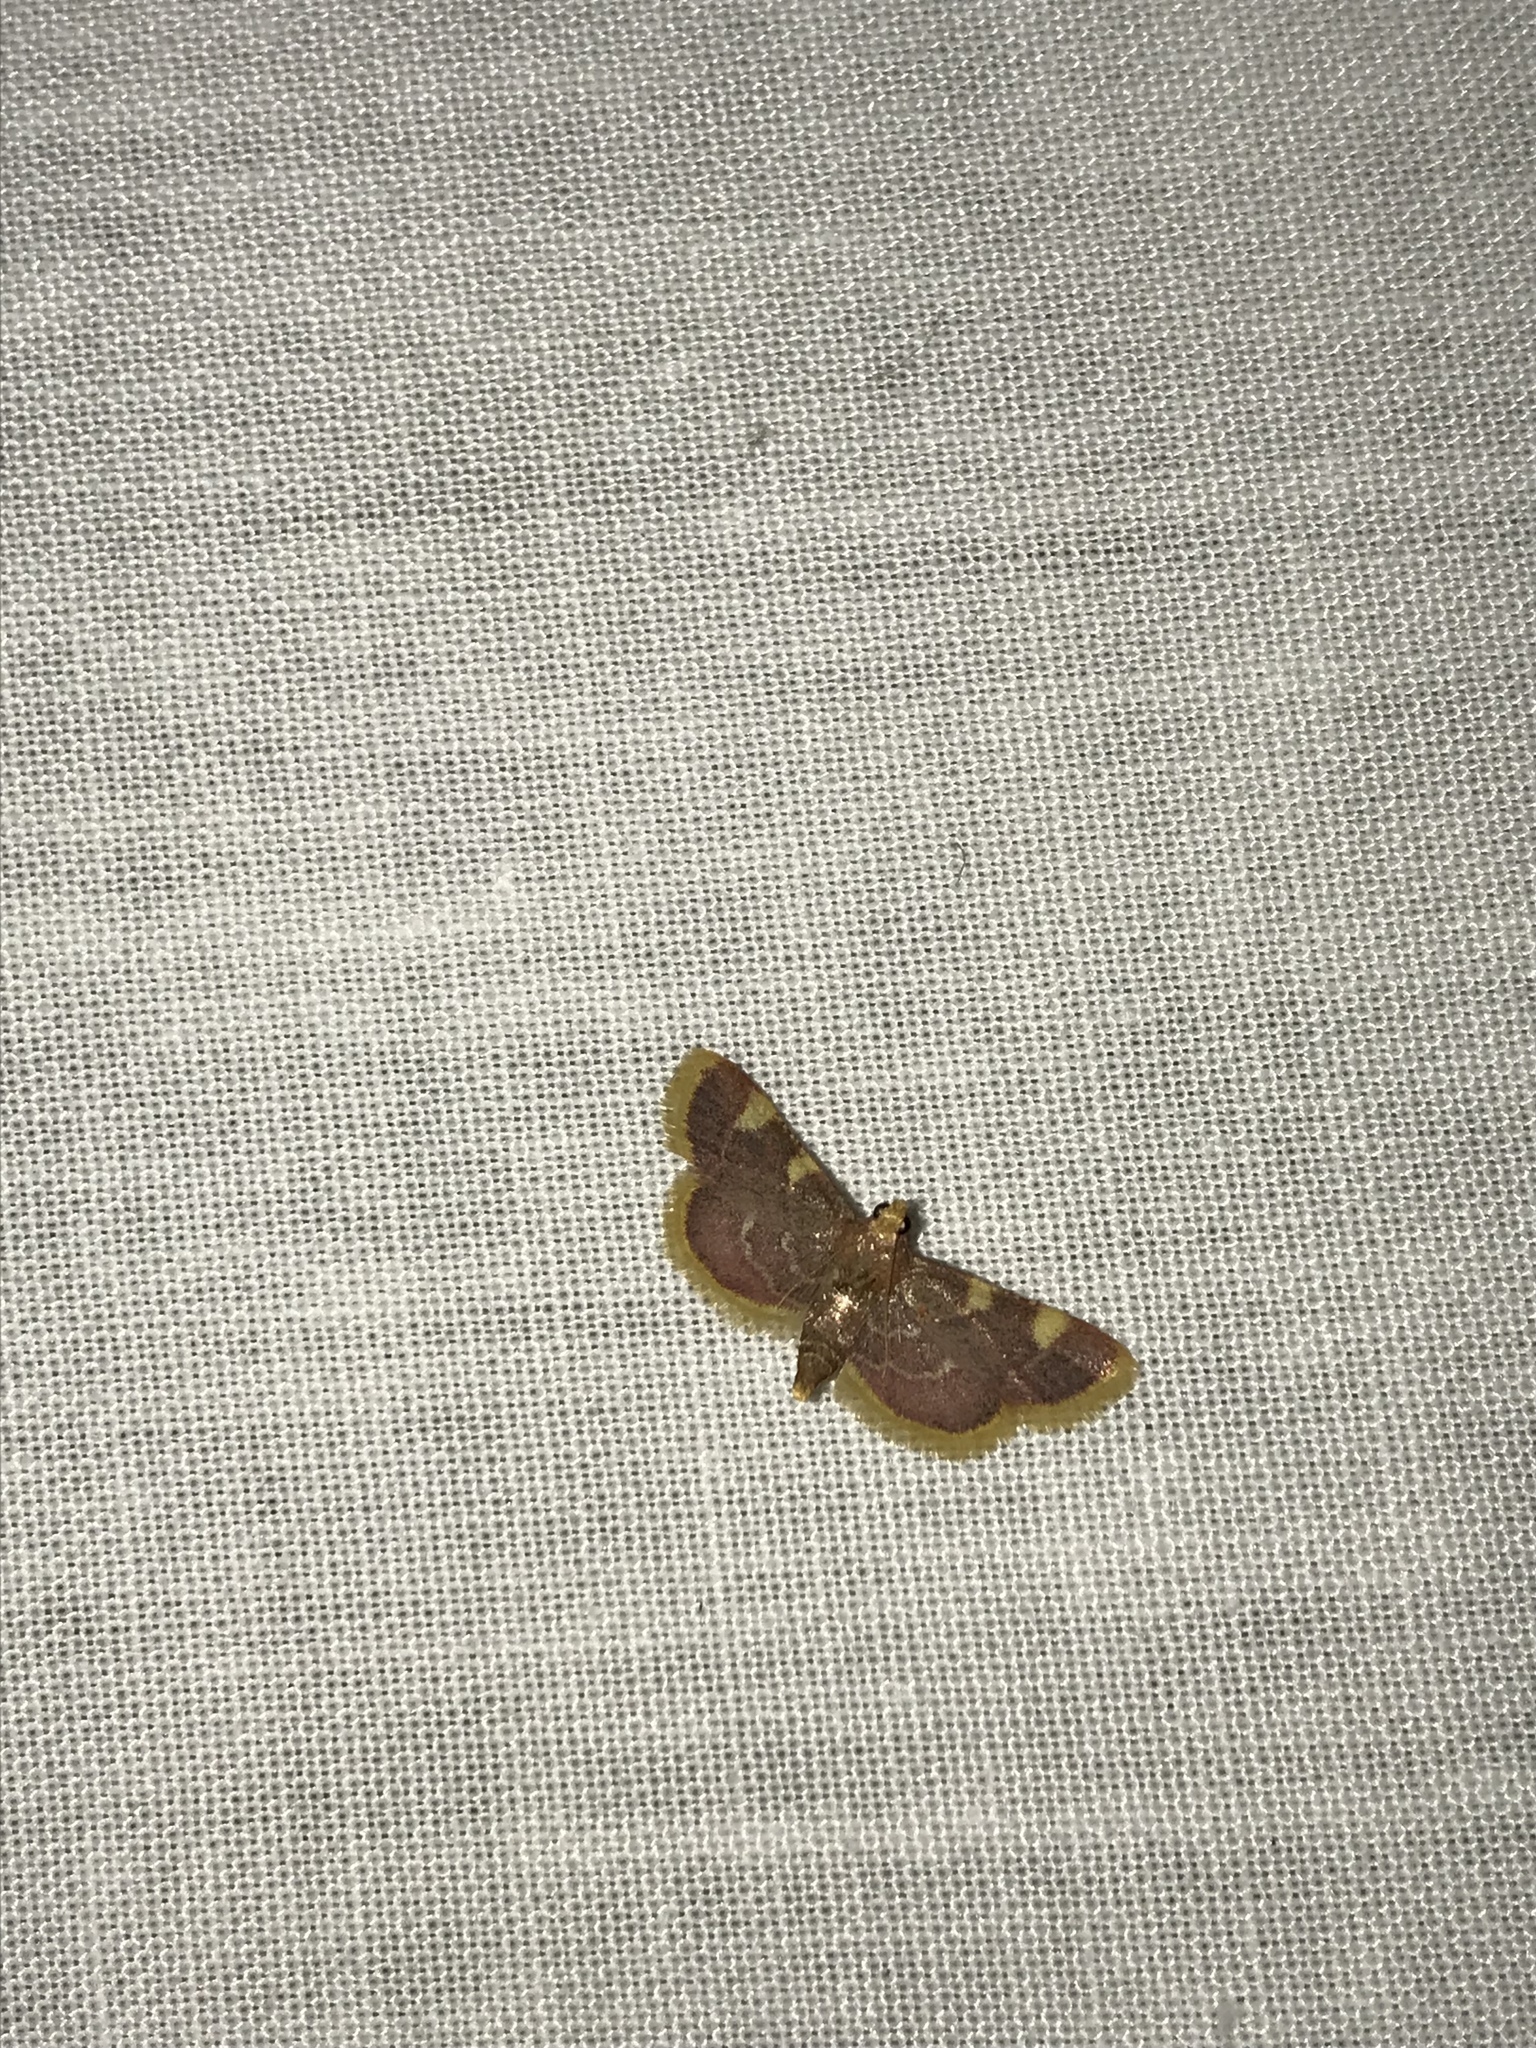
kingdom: Animalia
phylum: Arthropoda
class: Insecta
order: Lepidoptera
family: Pyralidae
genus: Hypsopygia
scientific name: Hypsopygia costalis
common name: Gold triangle
